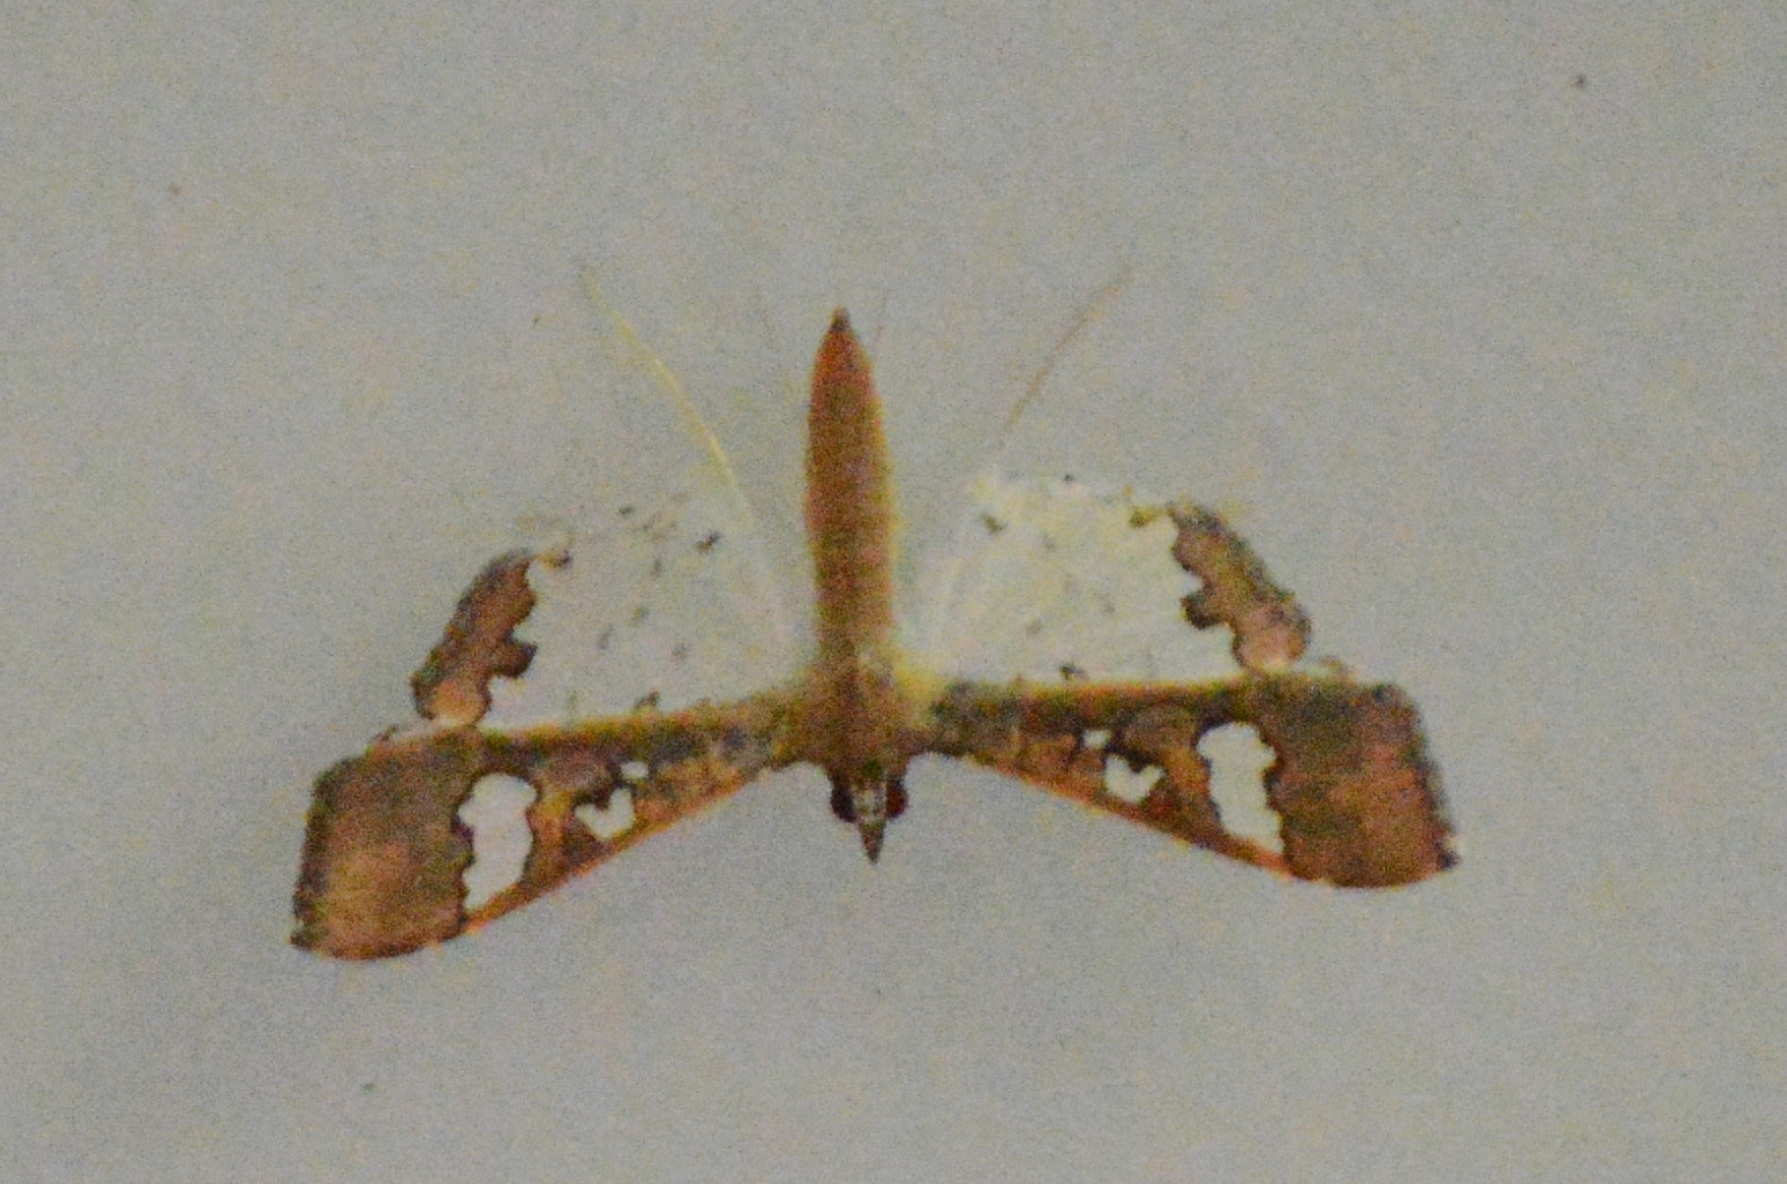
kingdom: Animalia
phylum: Arthropoda
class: Insecta
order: Lepidoptera
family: Crambidae
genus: Maruca
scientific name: Maruca vitrata
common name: Maruca pod borer
